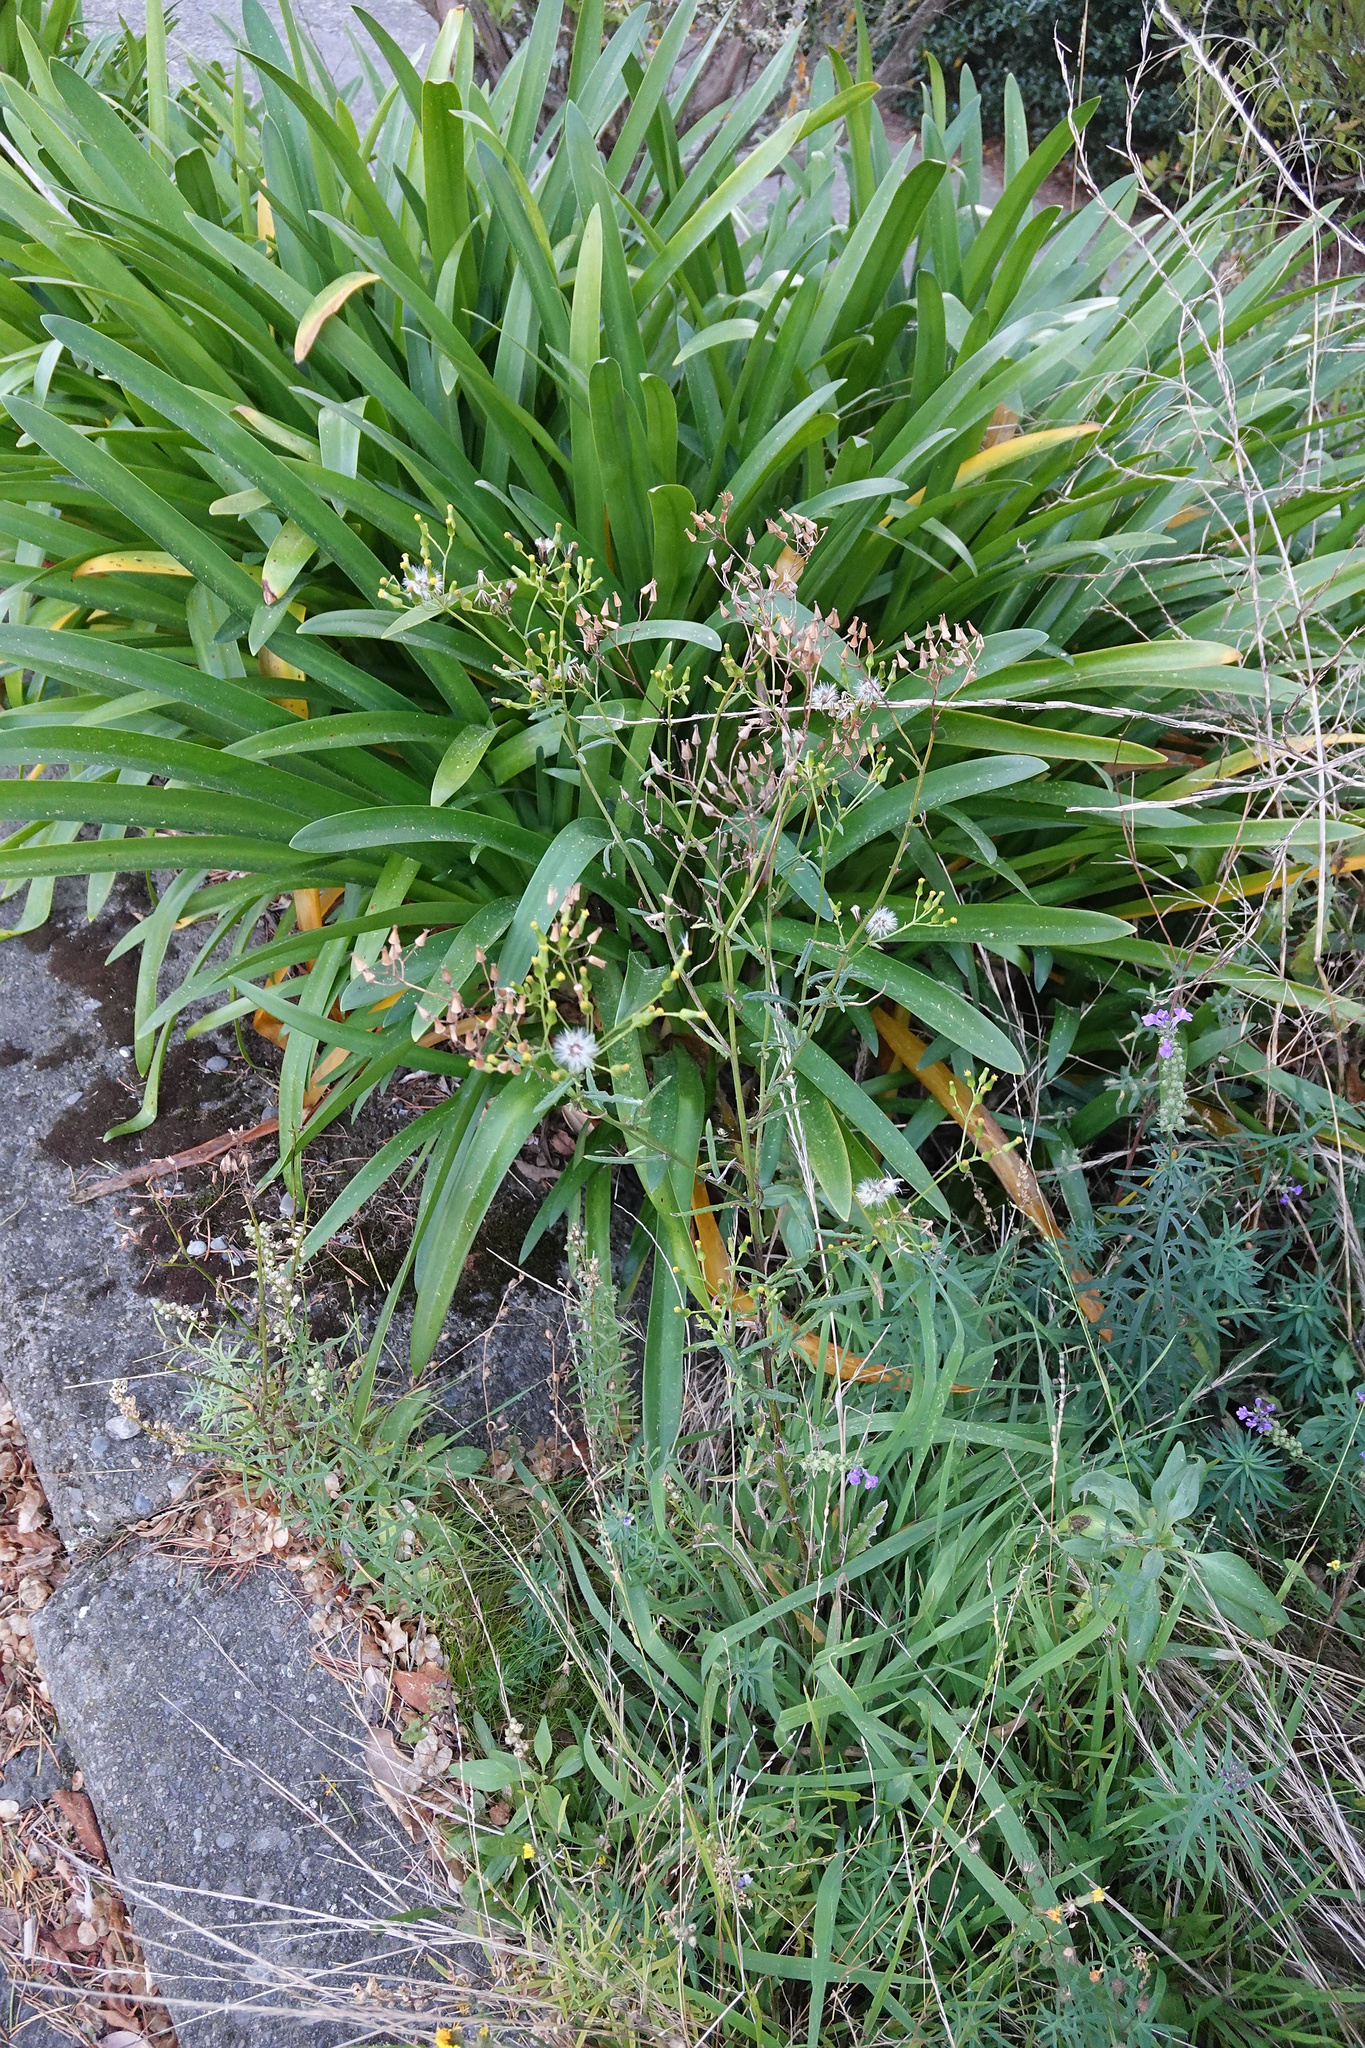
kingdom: Plantae
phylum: Tracheophyta
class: Liliopsida
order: Asparagales
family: Amaryllidaceae
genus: Agapanthus
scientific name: Agapanthus praecox
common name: African-lily
